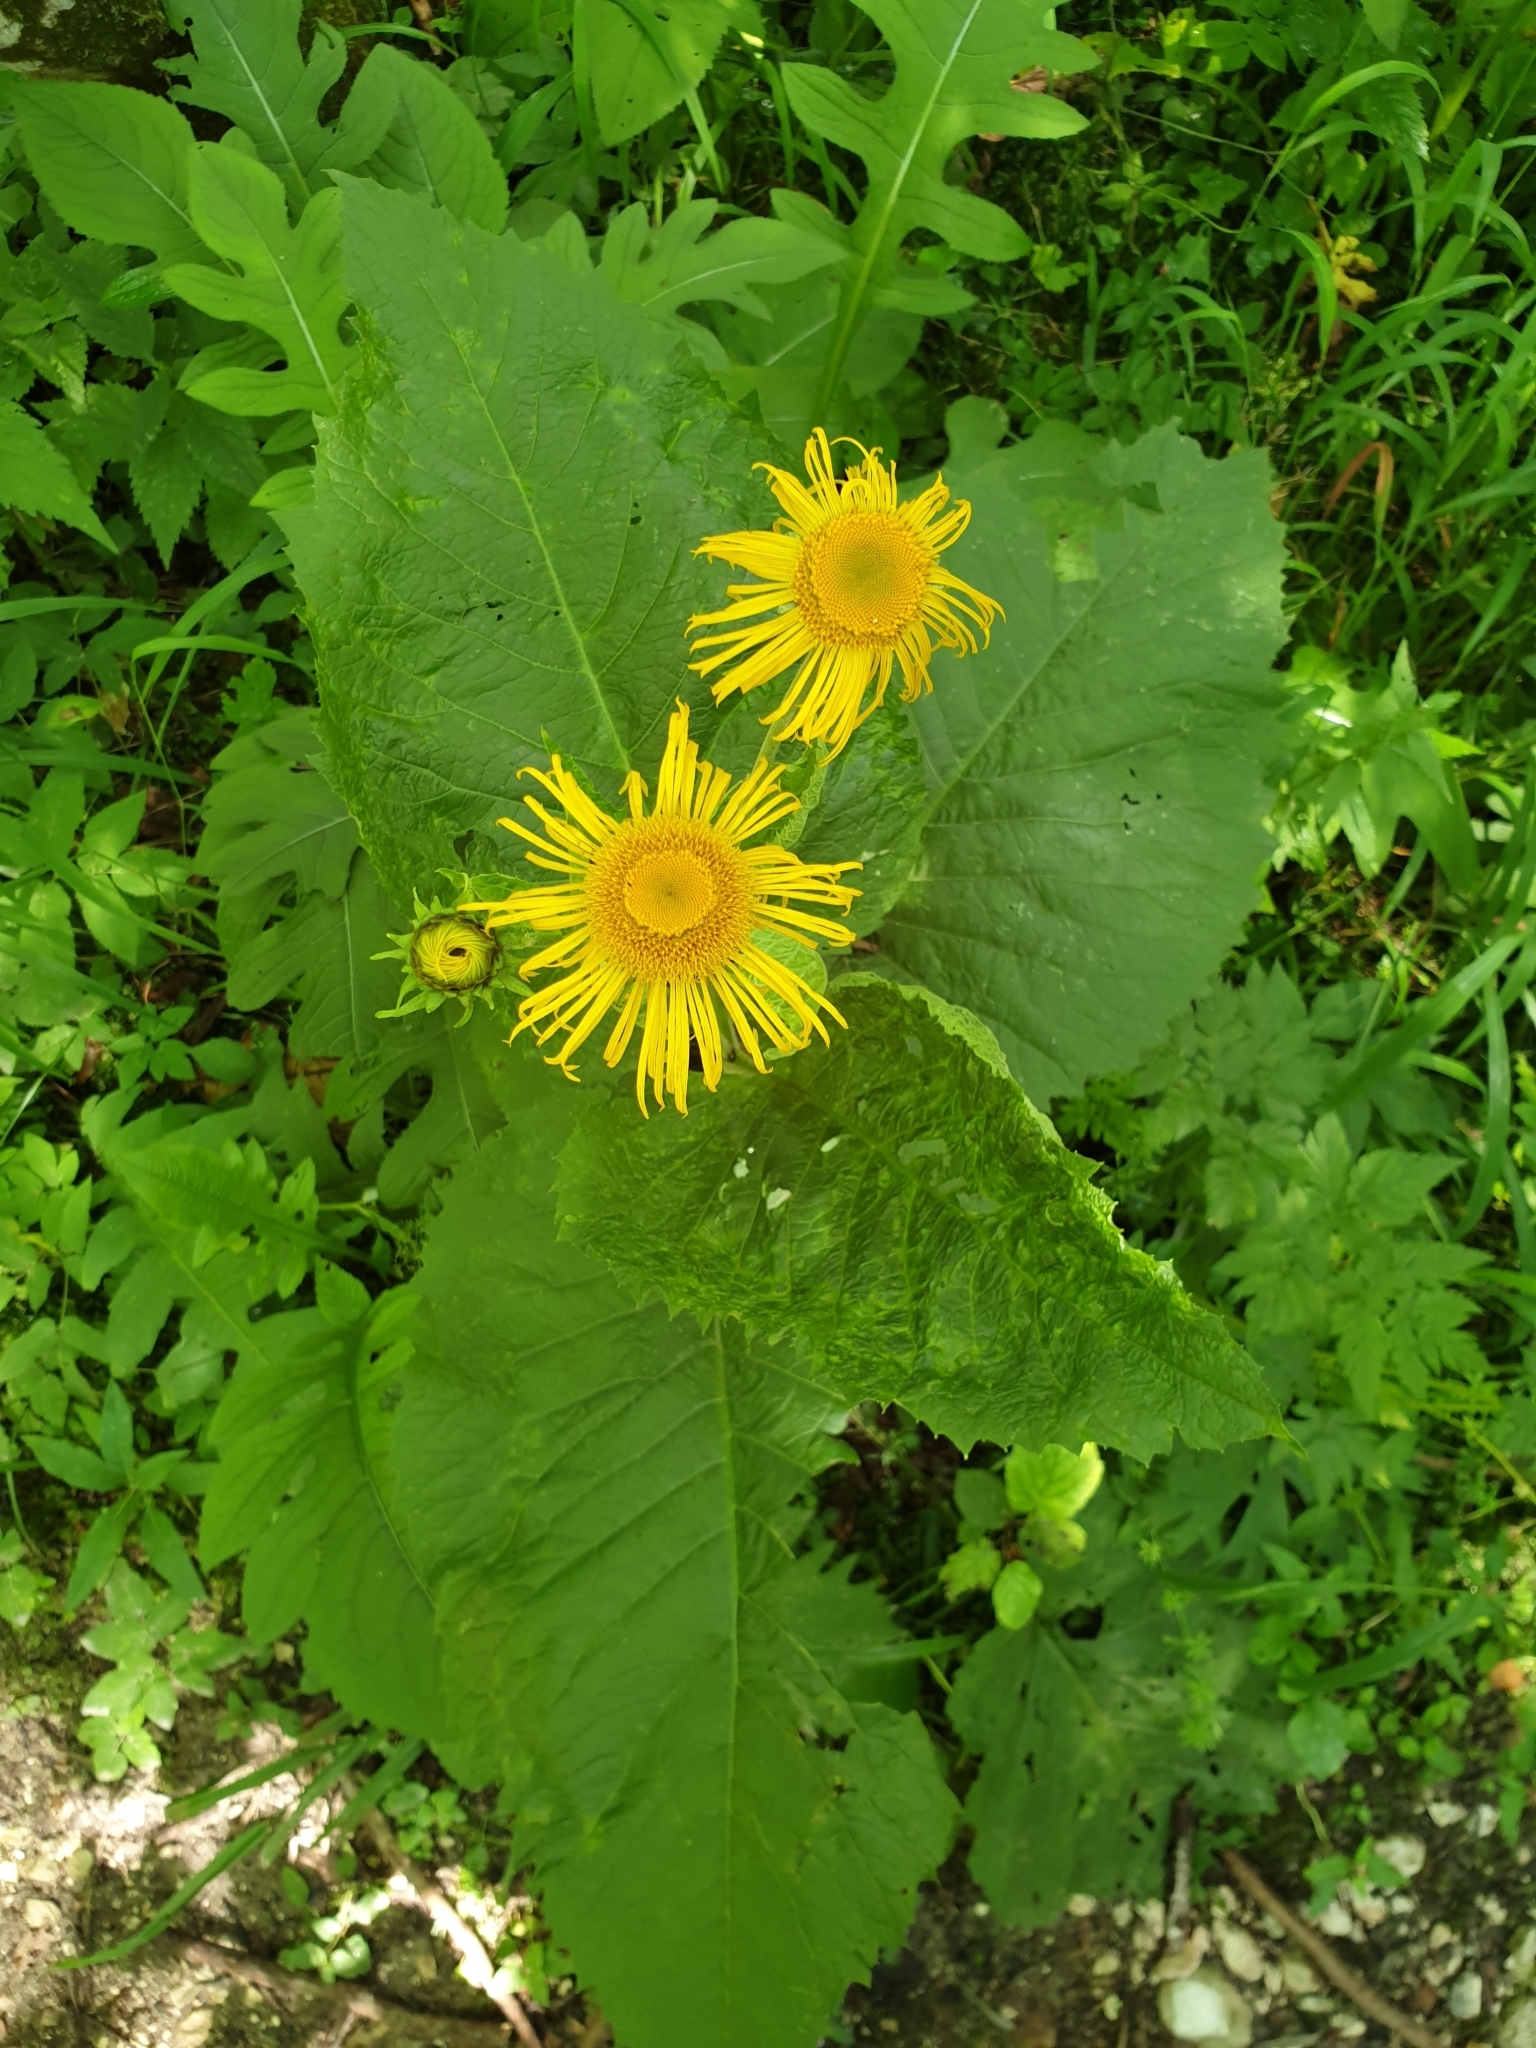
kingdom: Plantae
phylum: Tracheophyta
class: Magnoliopsida
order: Asterales
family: Asteraceae
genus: Telekia
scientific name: Telekia speciosa
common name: Yellow oxeye
